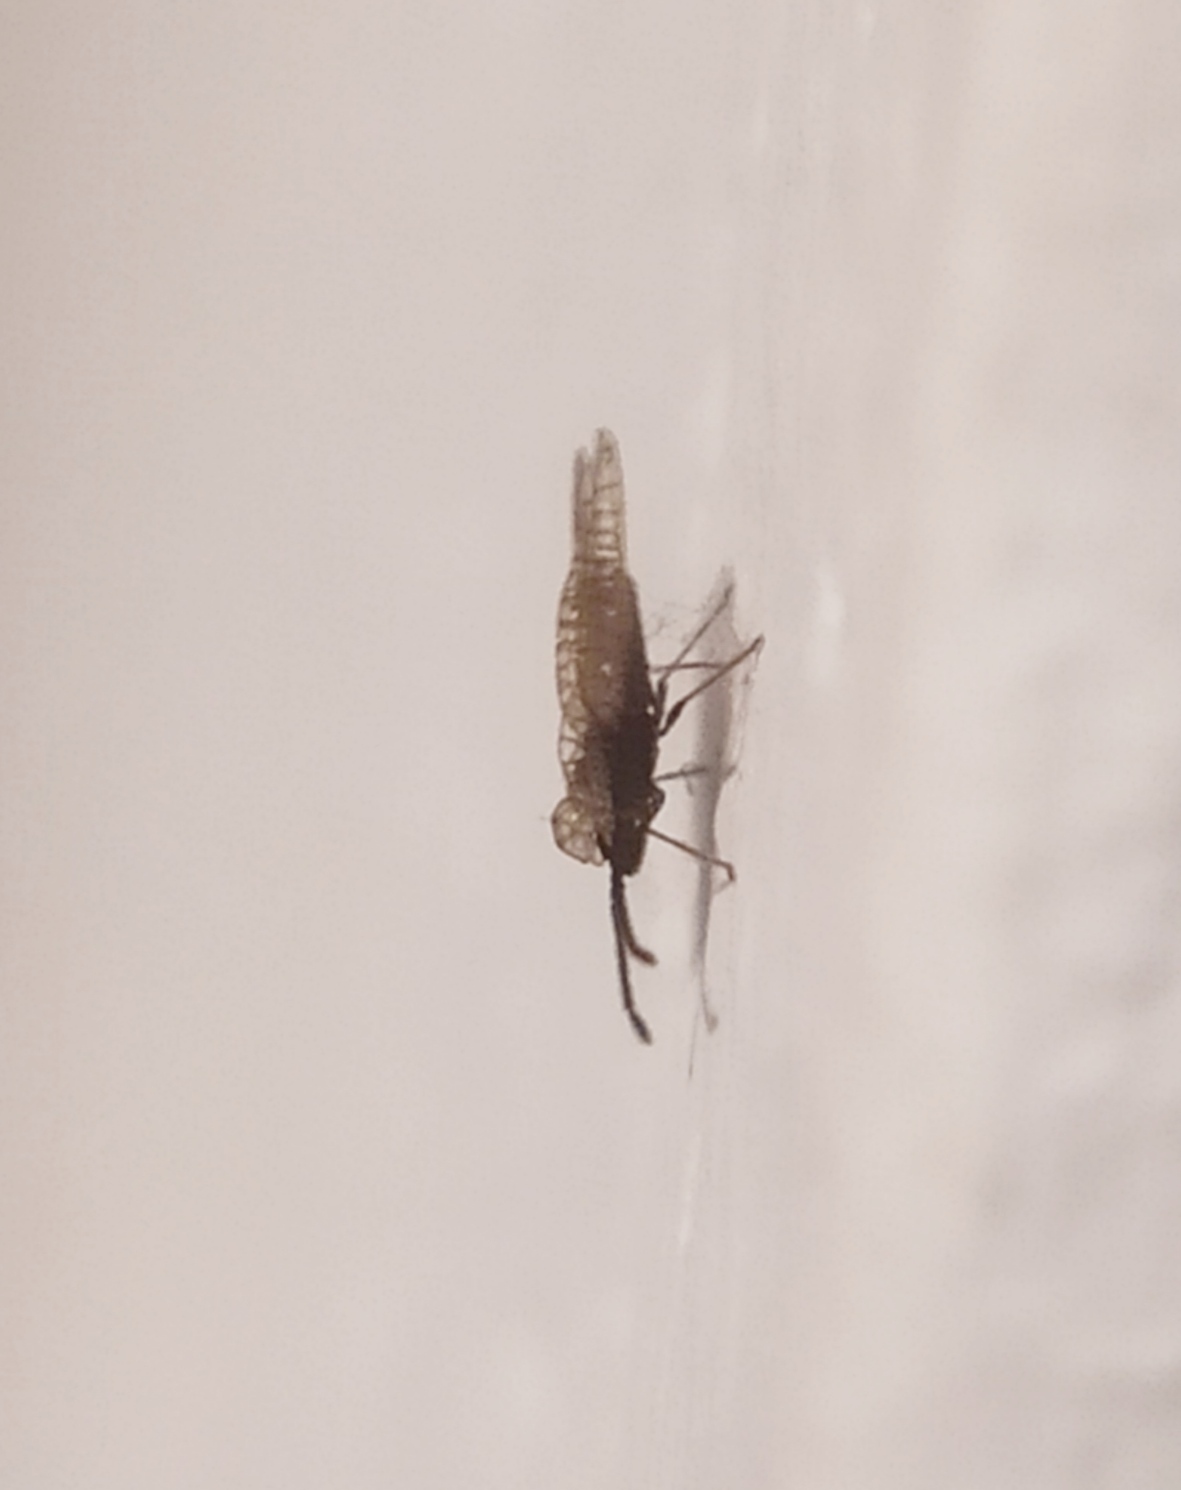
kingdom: Animalia
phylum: Arthropoda
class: Insecta
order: Hemiptera
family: Tingidae
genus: Derephysia
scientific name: Derephysia foliacea
